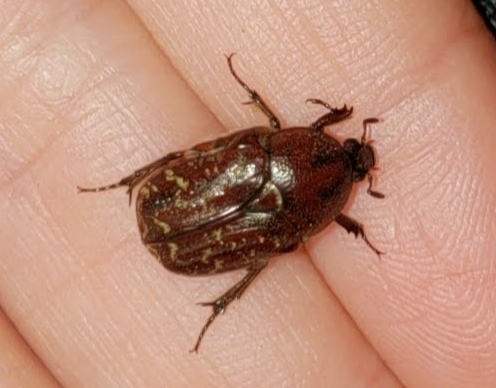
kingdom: Animalia
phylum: Arthropoda
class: Insecta
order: Coleoptera
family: Scarabaeidae
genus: Euphoria
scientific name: Euphoria sepulcralis
